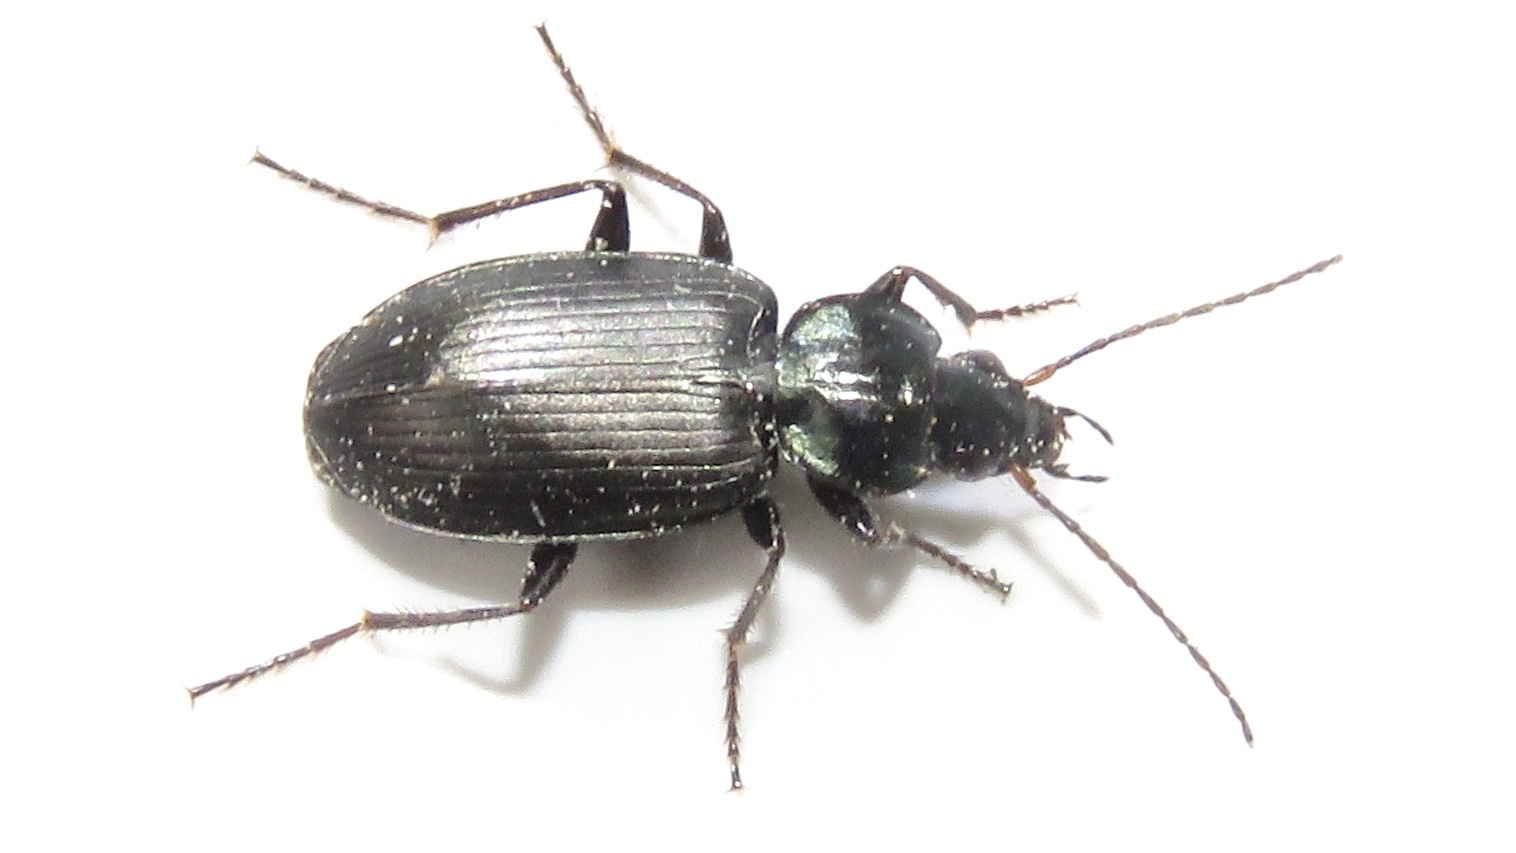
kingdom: Animalia
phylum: Arthropoda
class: Insecta
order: Coleoptera
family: Carabidae
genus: Agonum
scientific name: Agonum placidum
